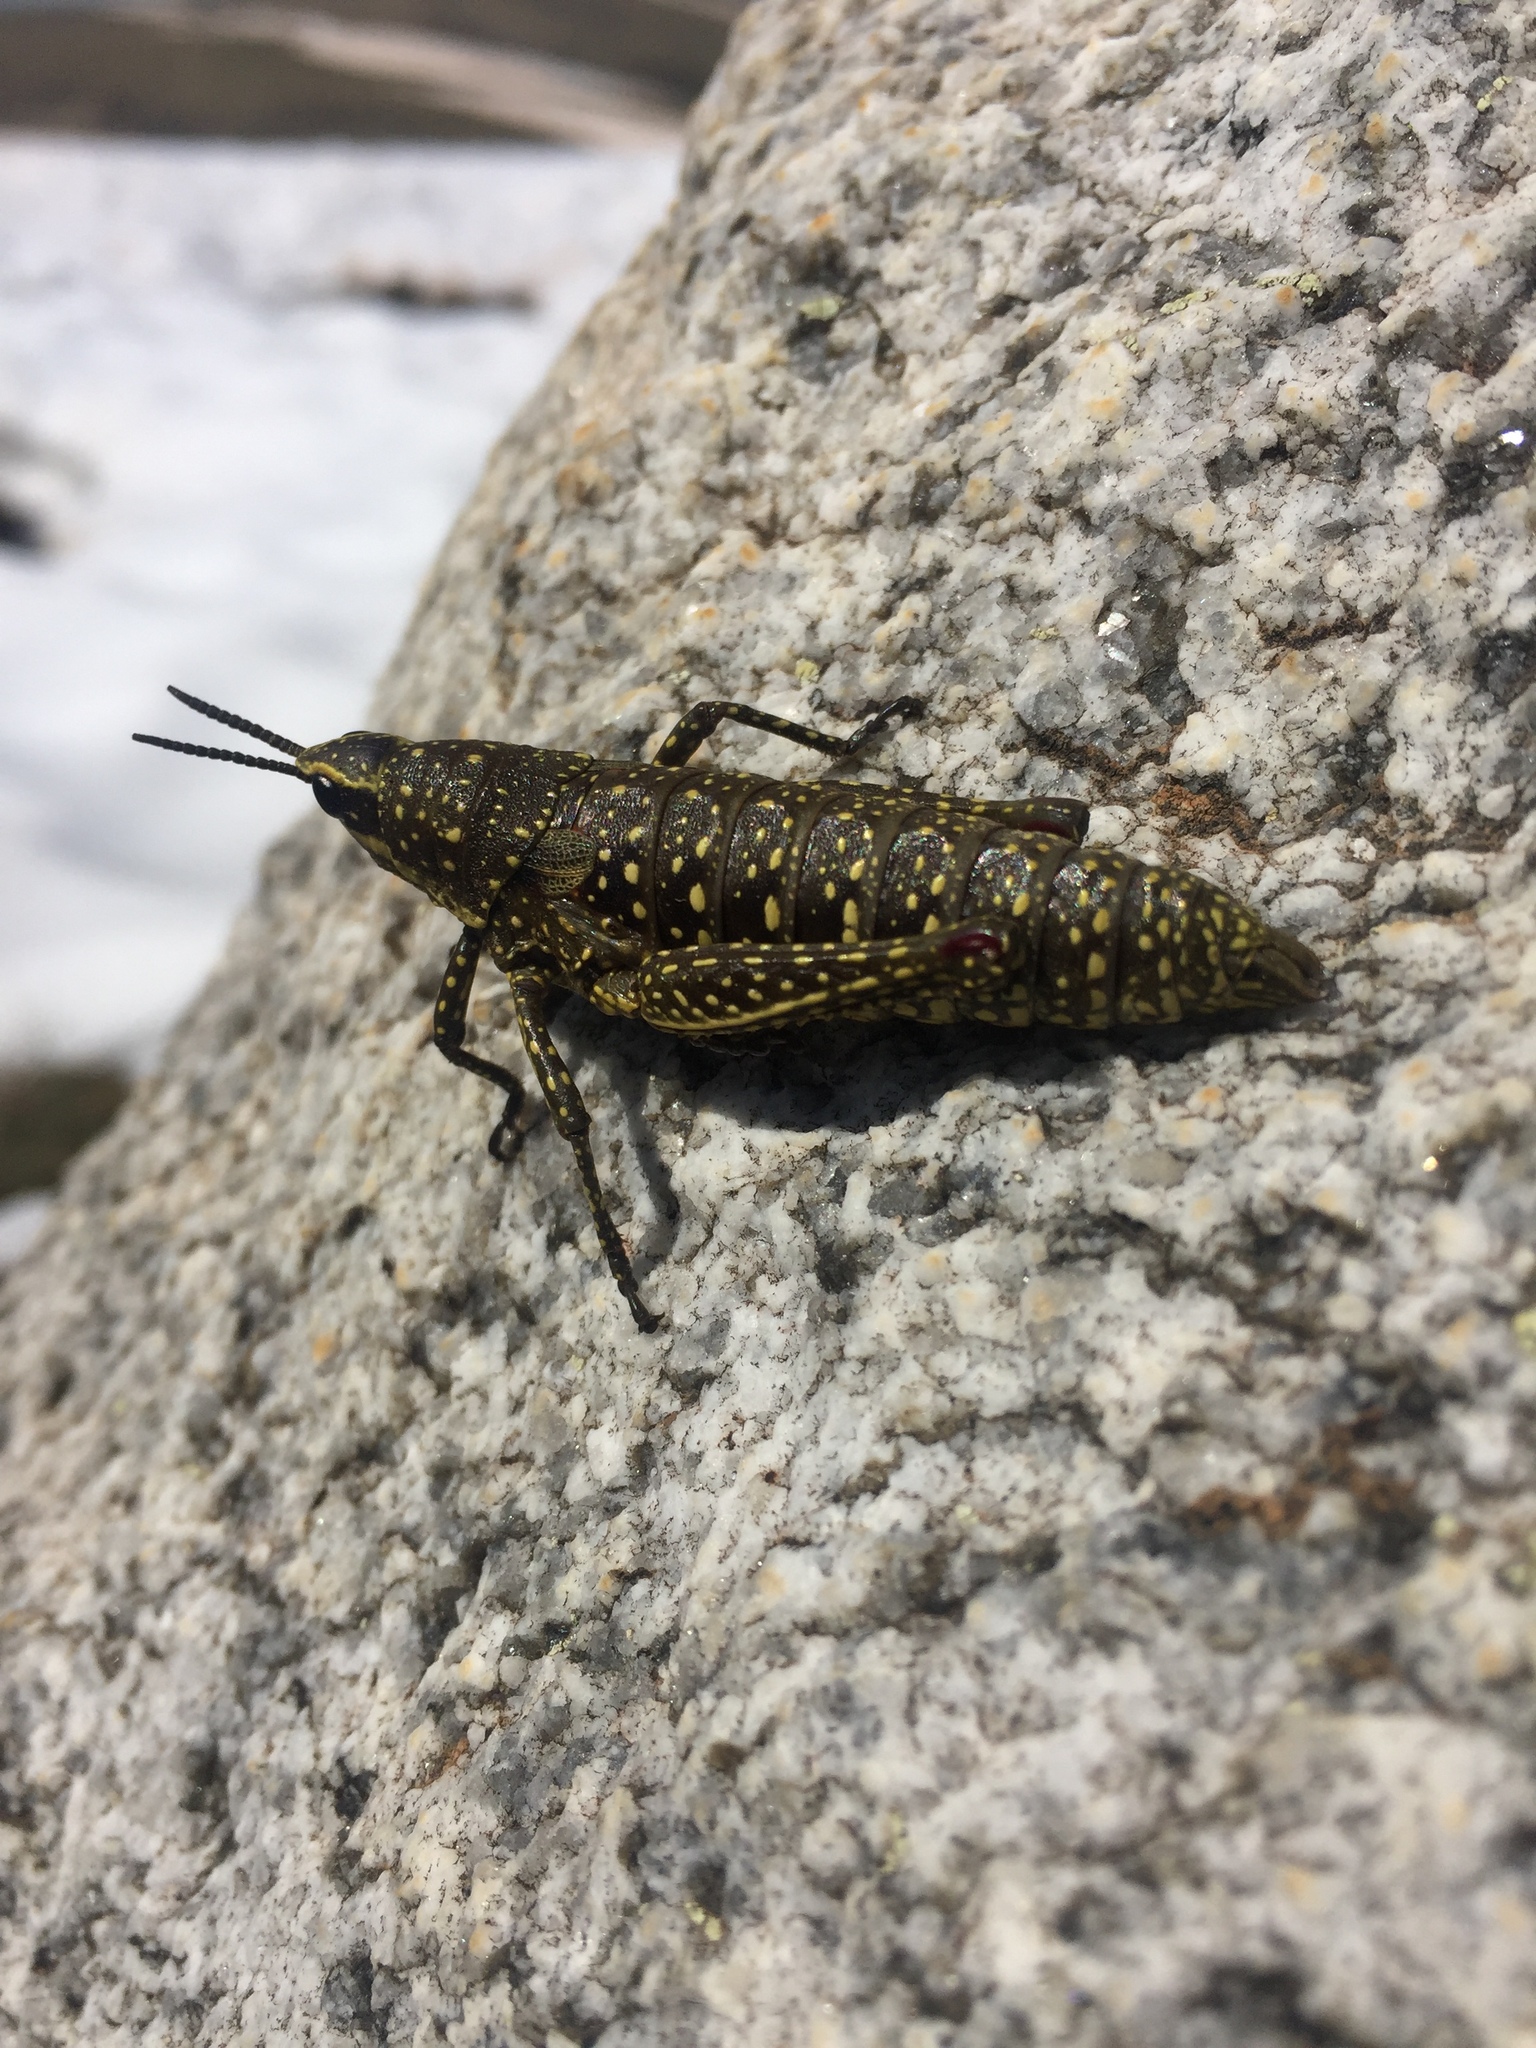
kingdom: Animalia
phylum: Arthropoda
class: Insecta
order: Orthoptera
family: Pyrgomorphidae
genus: Monistria
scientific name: Monistria concinna
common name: Southern pyrgomorph
